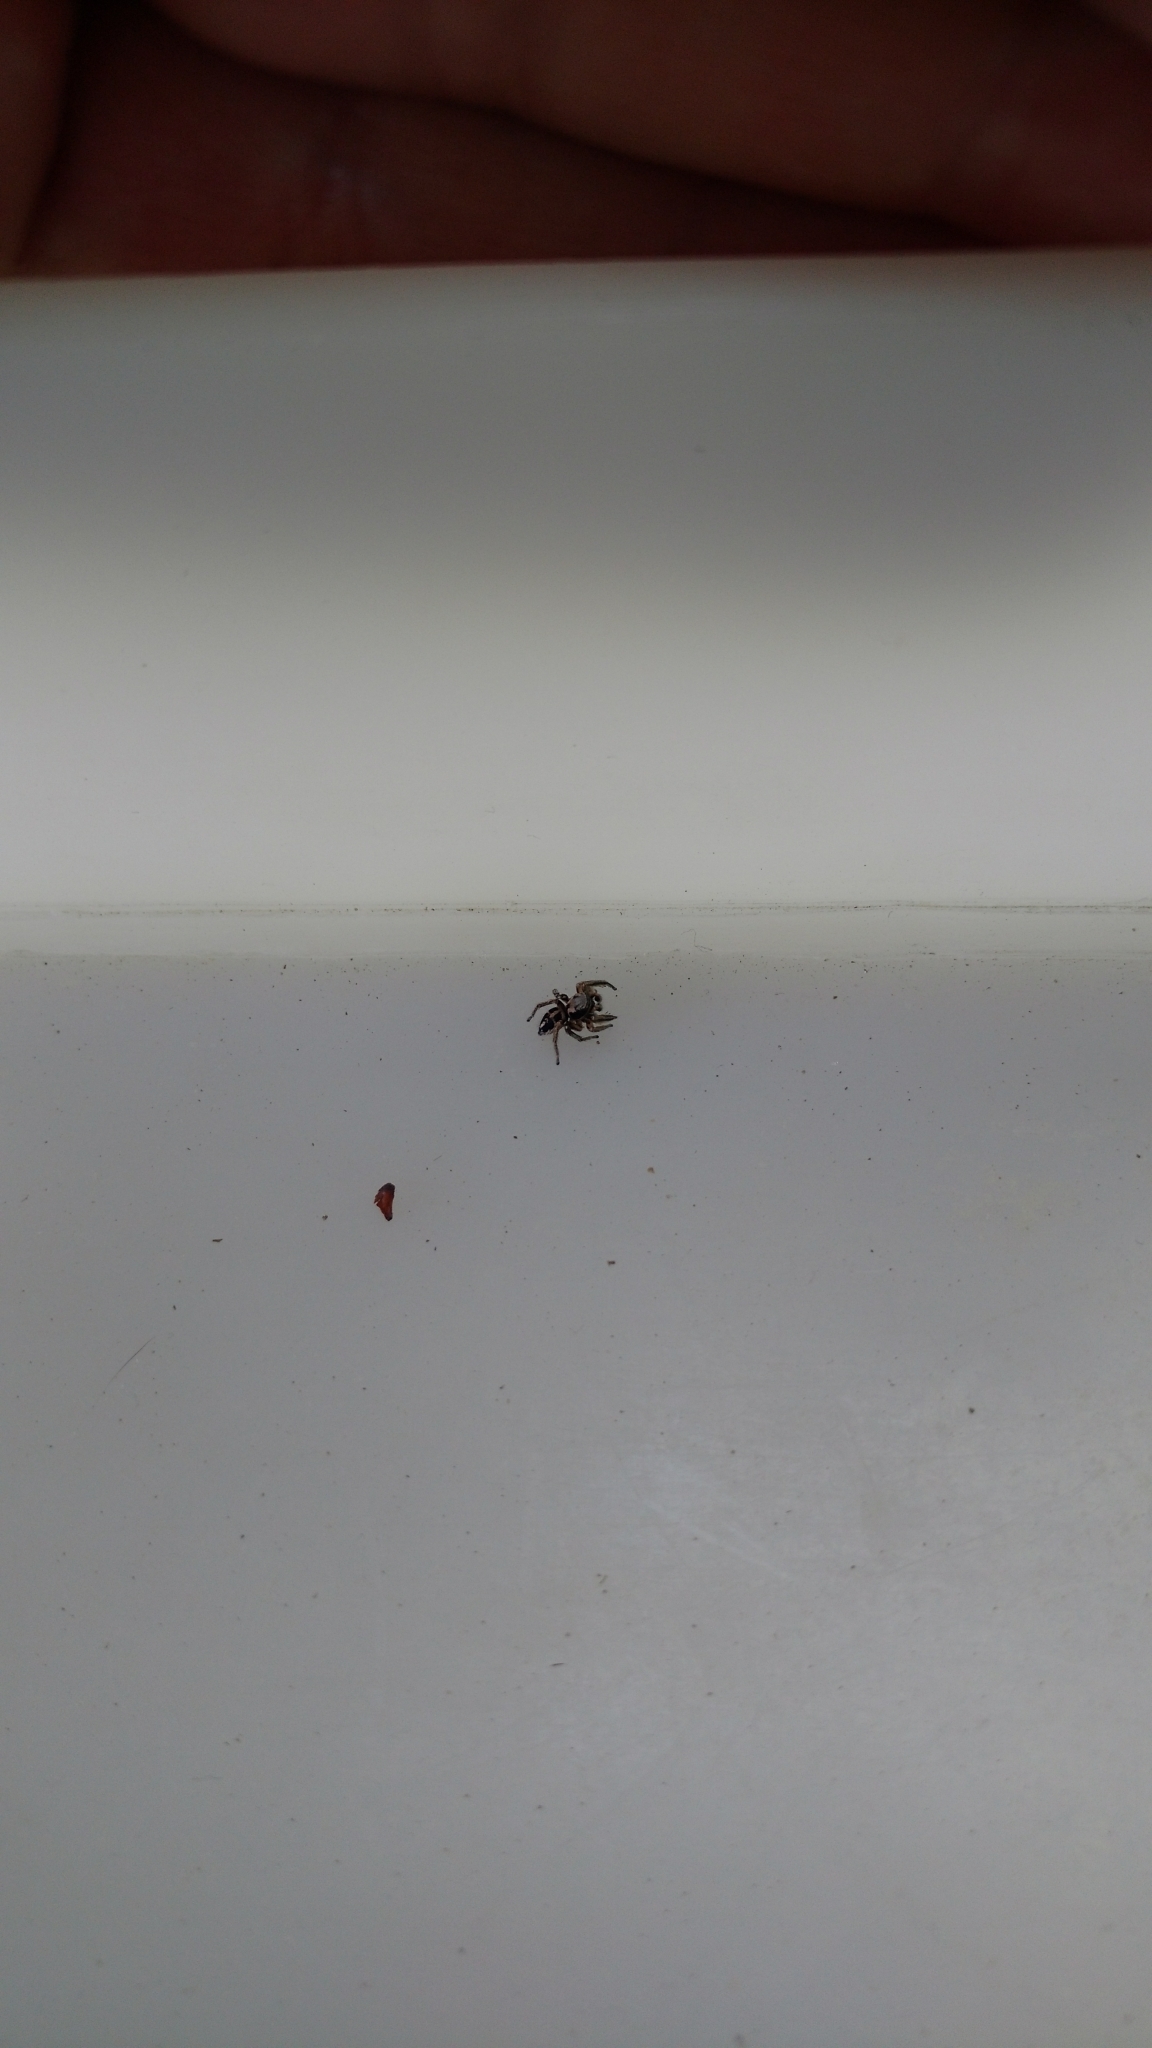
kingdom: Animalia
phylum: Arthropoda
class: Arachnida
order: Araneae
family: Salticidae
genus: Habronattus
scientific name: Habronattus festus
